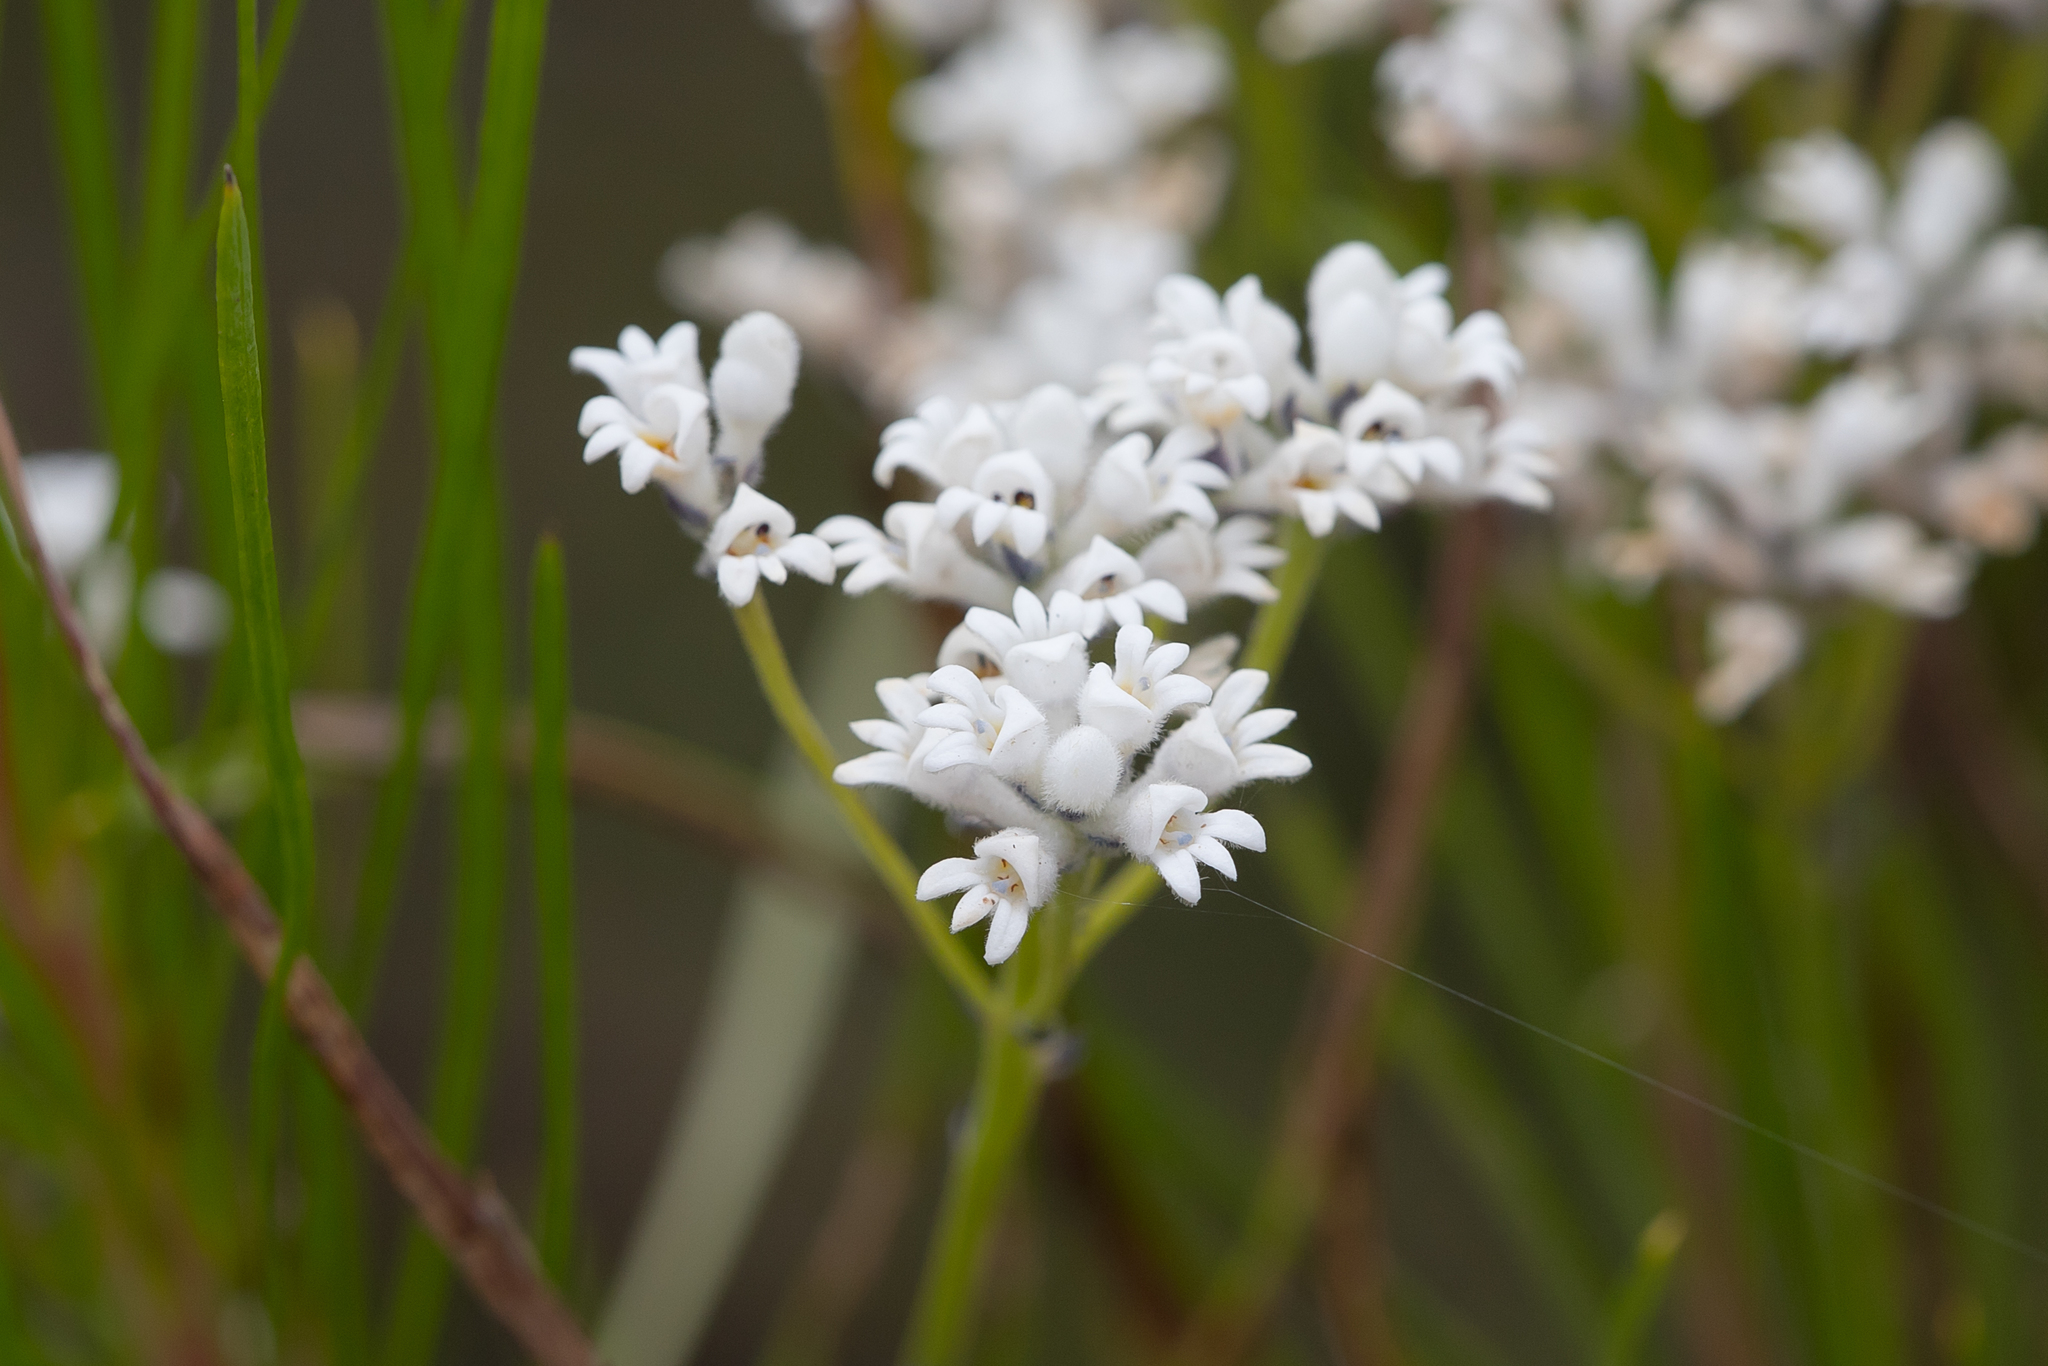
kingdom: Plantae
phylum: Tracheophyta
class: Magnoliopsida
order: Proteales
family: Proteaceae
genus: Conospermum
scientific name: Conospermum mitchellii
